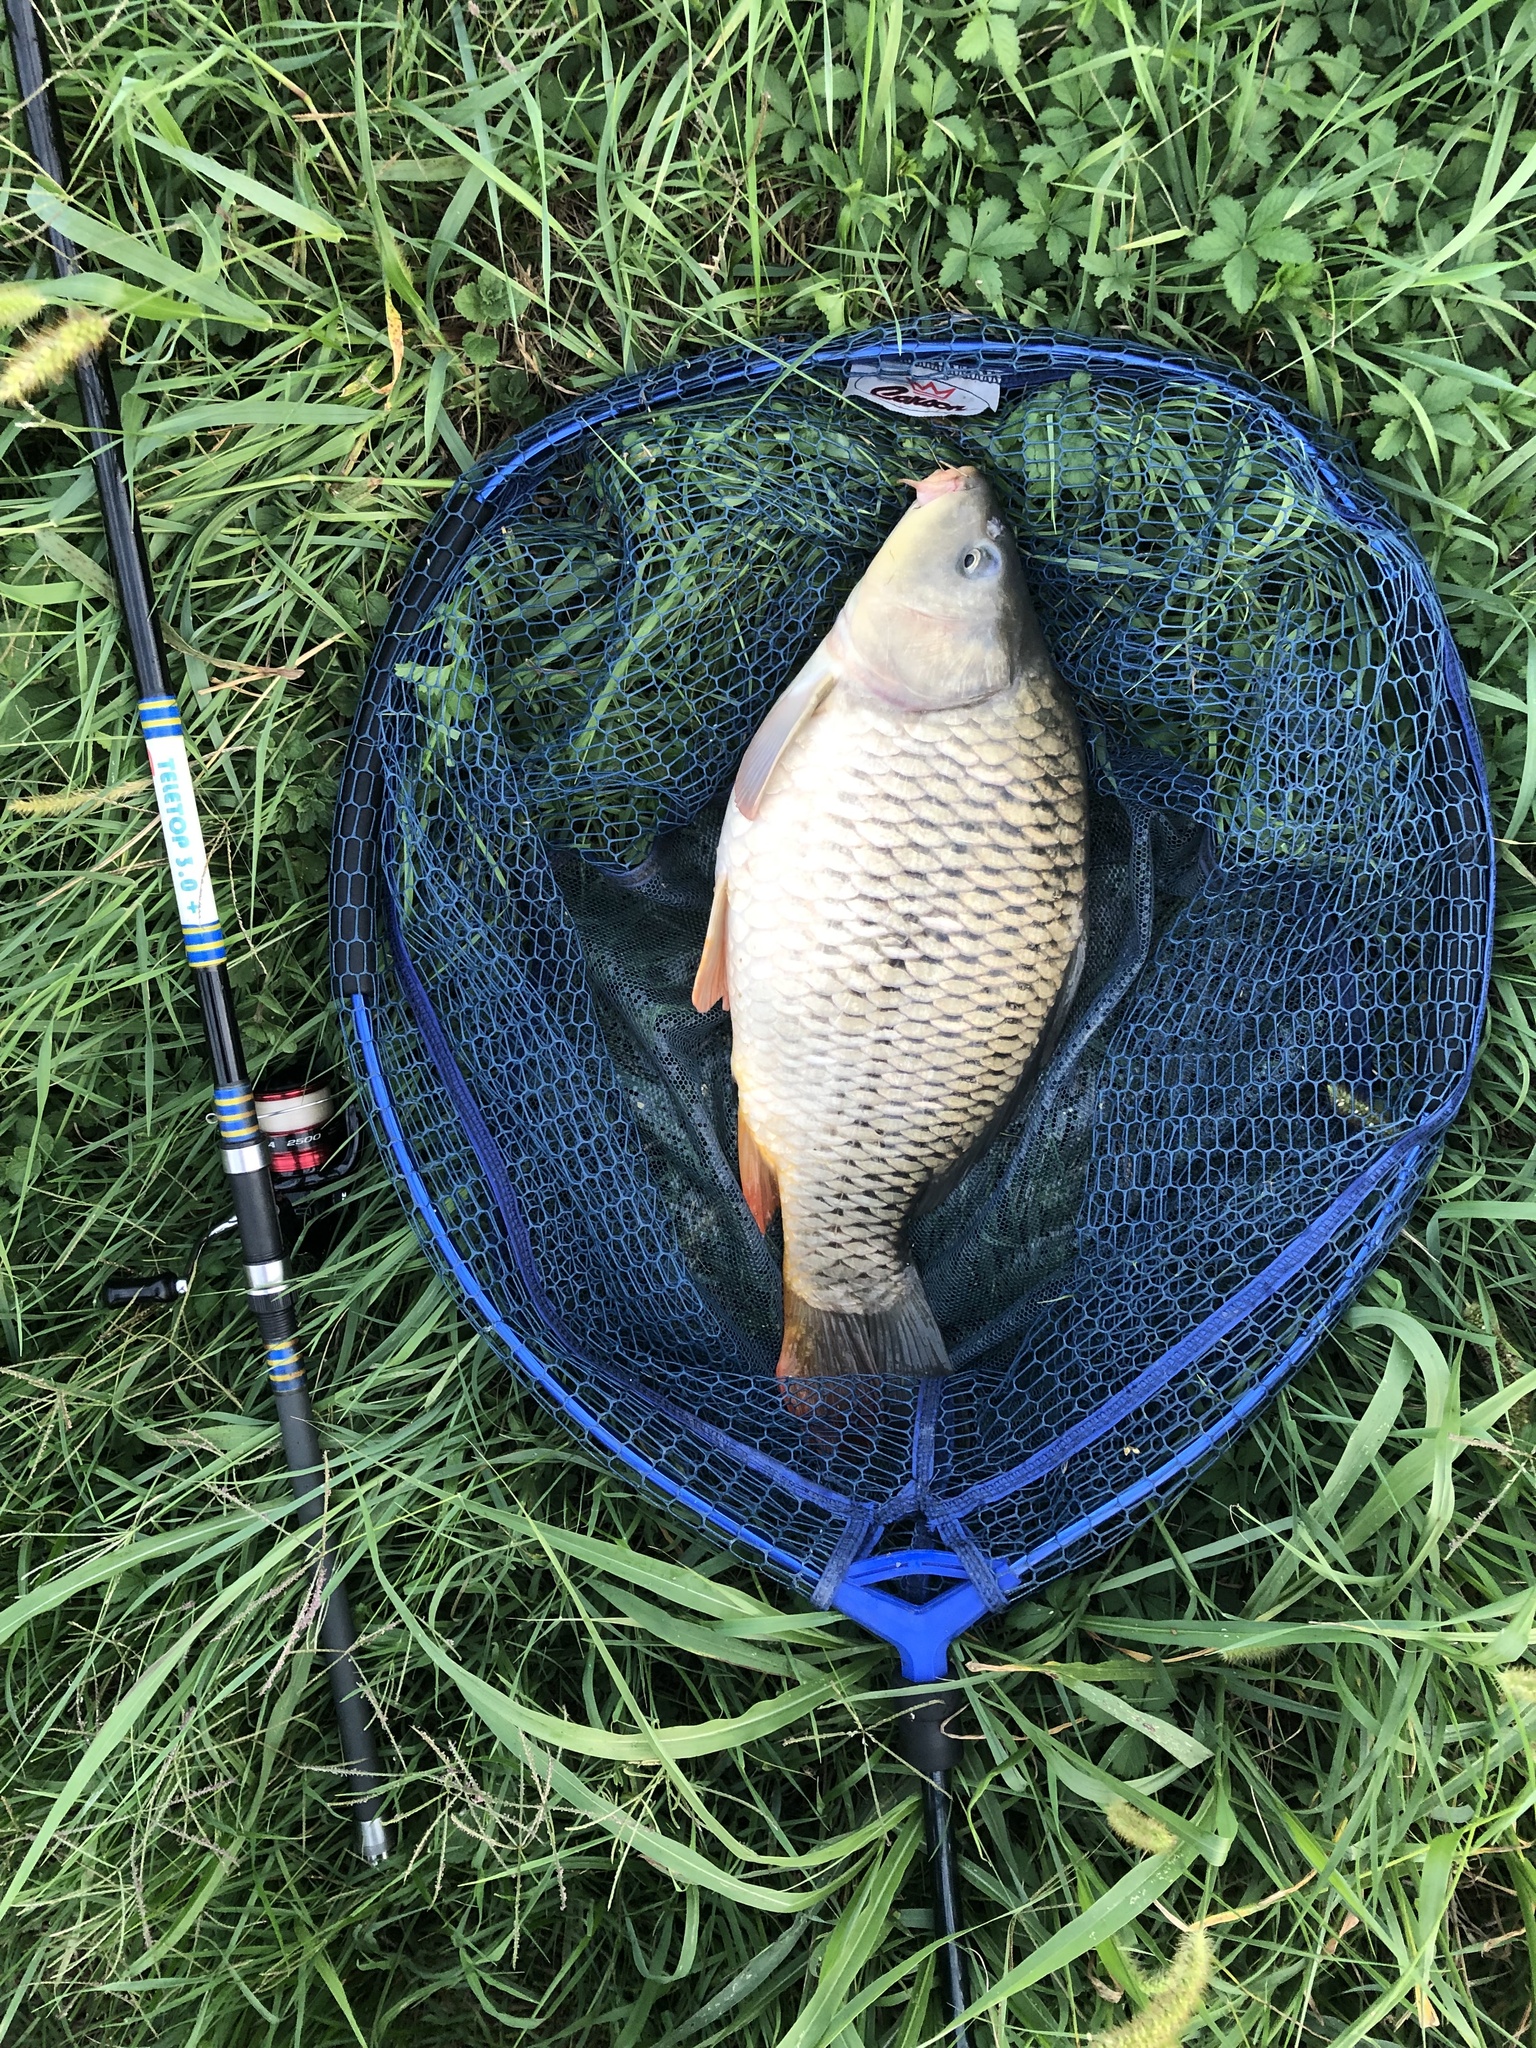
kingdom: Animalia
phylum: Chordata
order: Cypriniformes
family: Cyprinidae
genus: Cyprinus
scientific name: Cyprinus carpio
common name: Common carp
